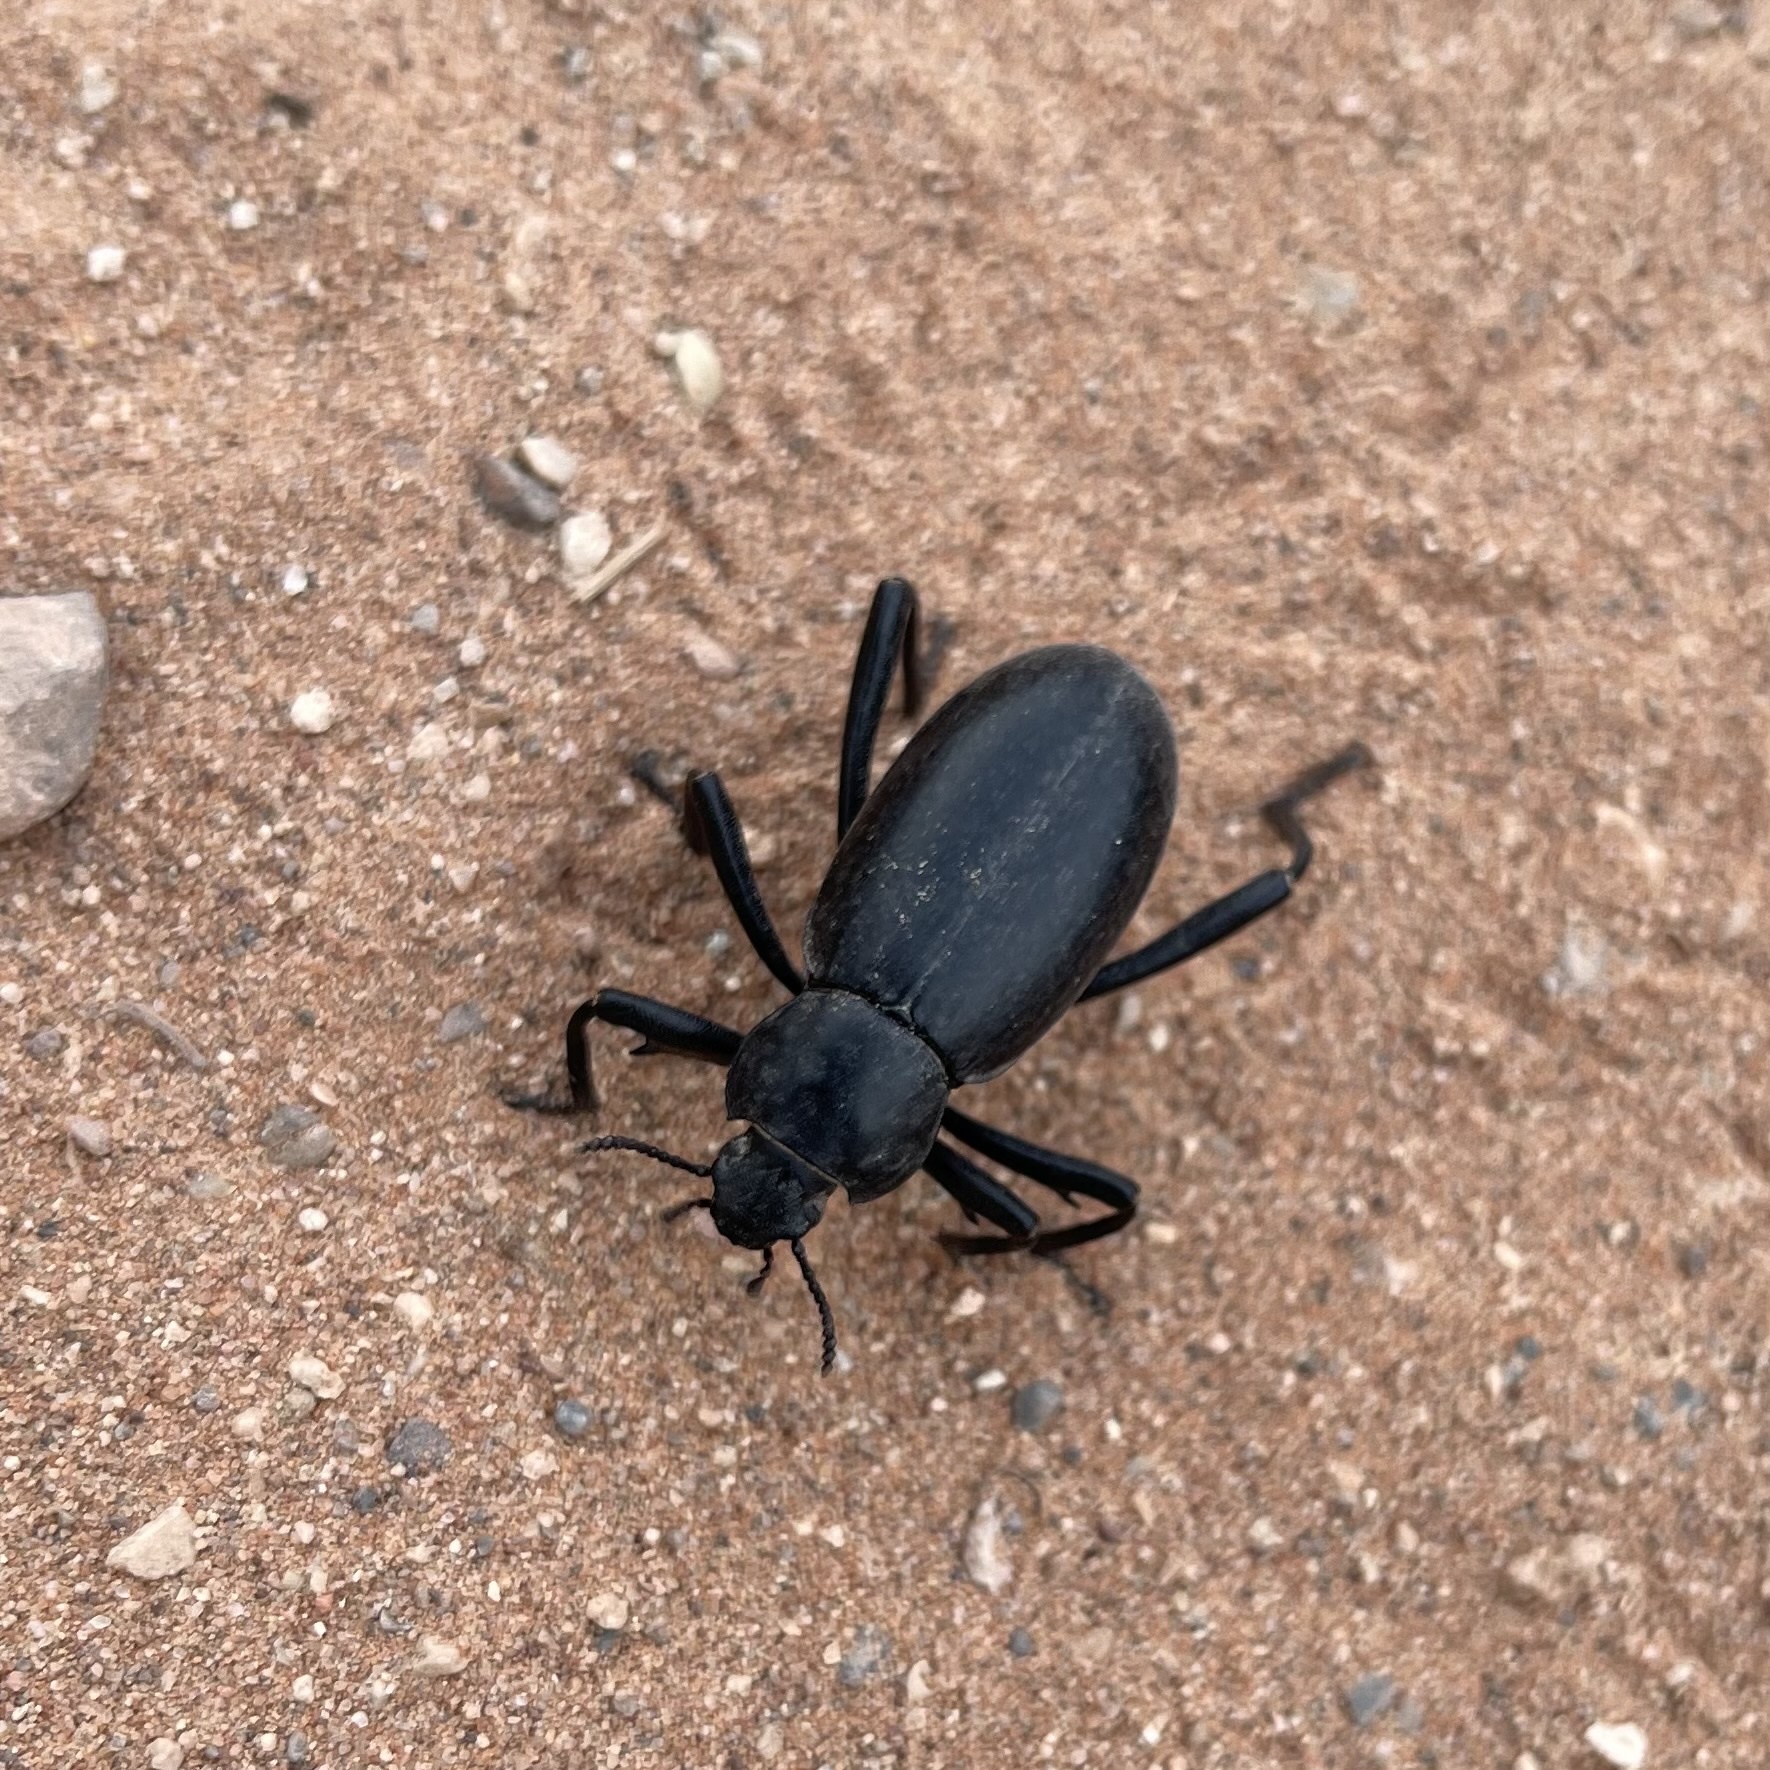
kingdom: Animalia
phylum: Arthropoda
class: Insecta
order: Coleoptera
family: Tenebrionidae
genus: Eleodes
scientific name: Eleodes armata
